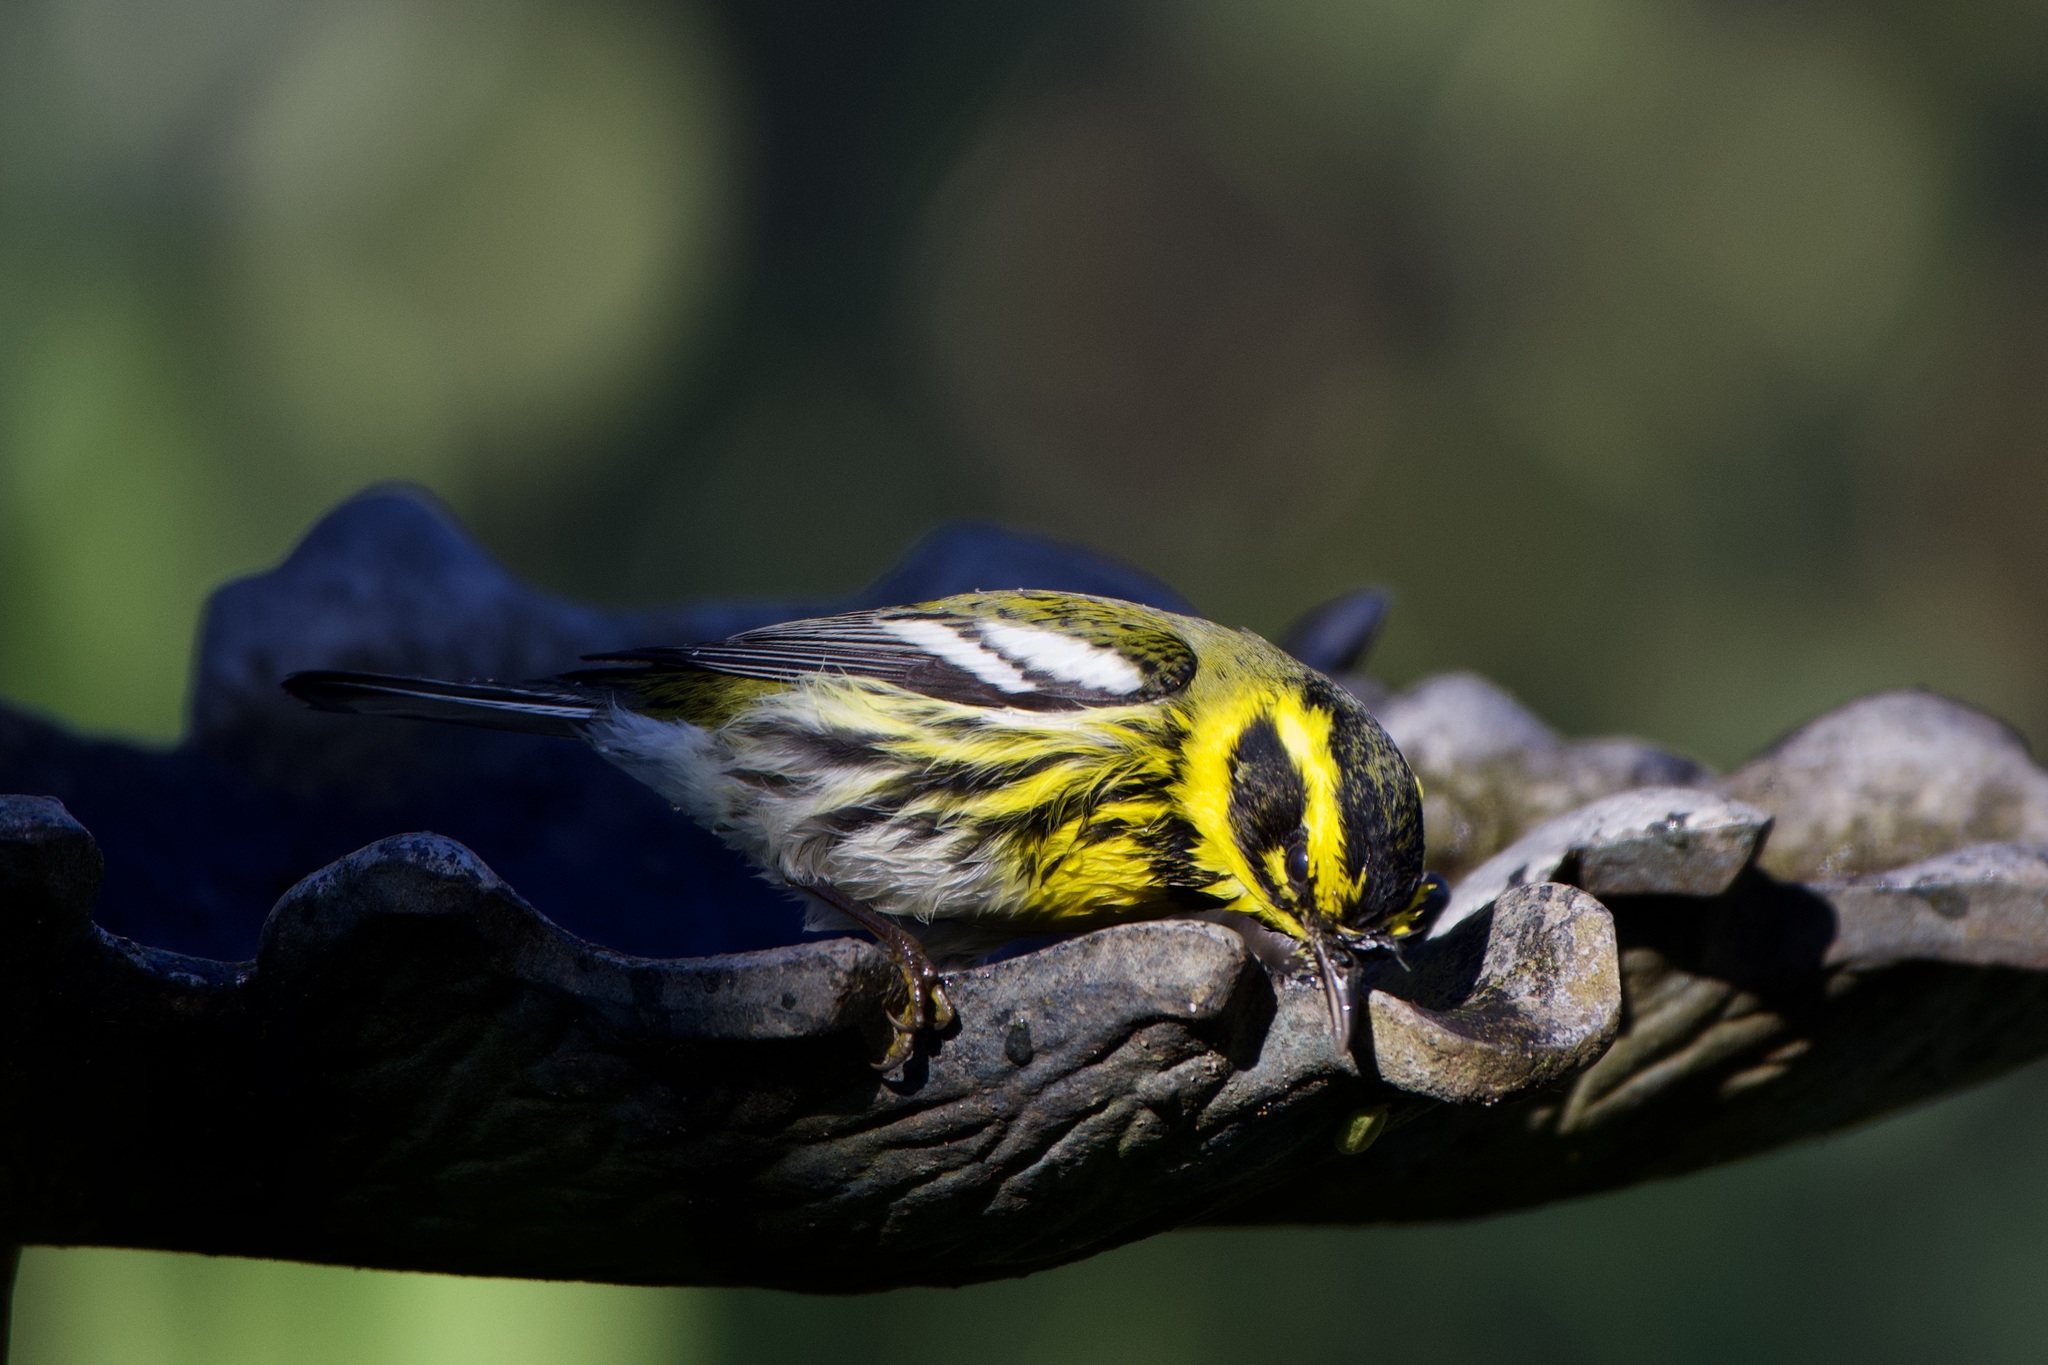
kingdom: Animalia
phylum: Chordata
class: Aves
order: Passeriformes
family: Parulidae
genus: Setophaga
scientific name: Setophaga townsendi
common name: Townsend's warbler
